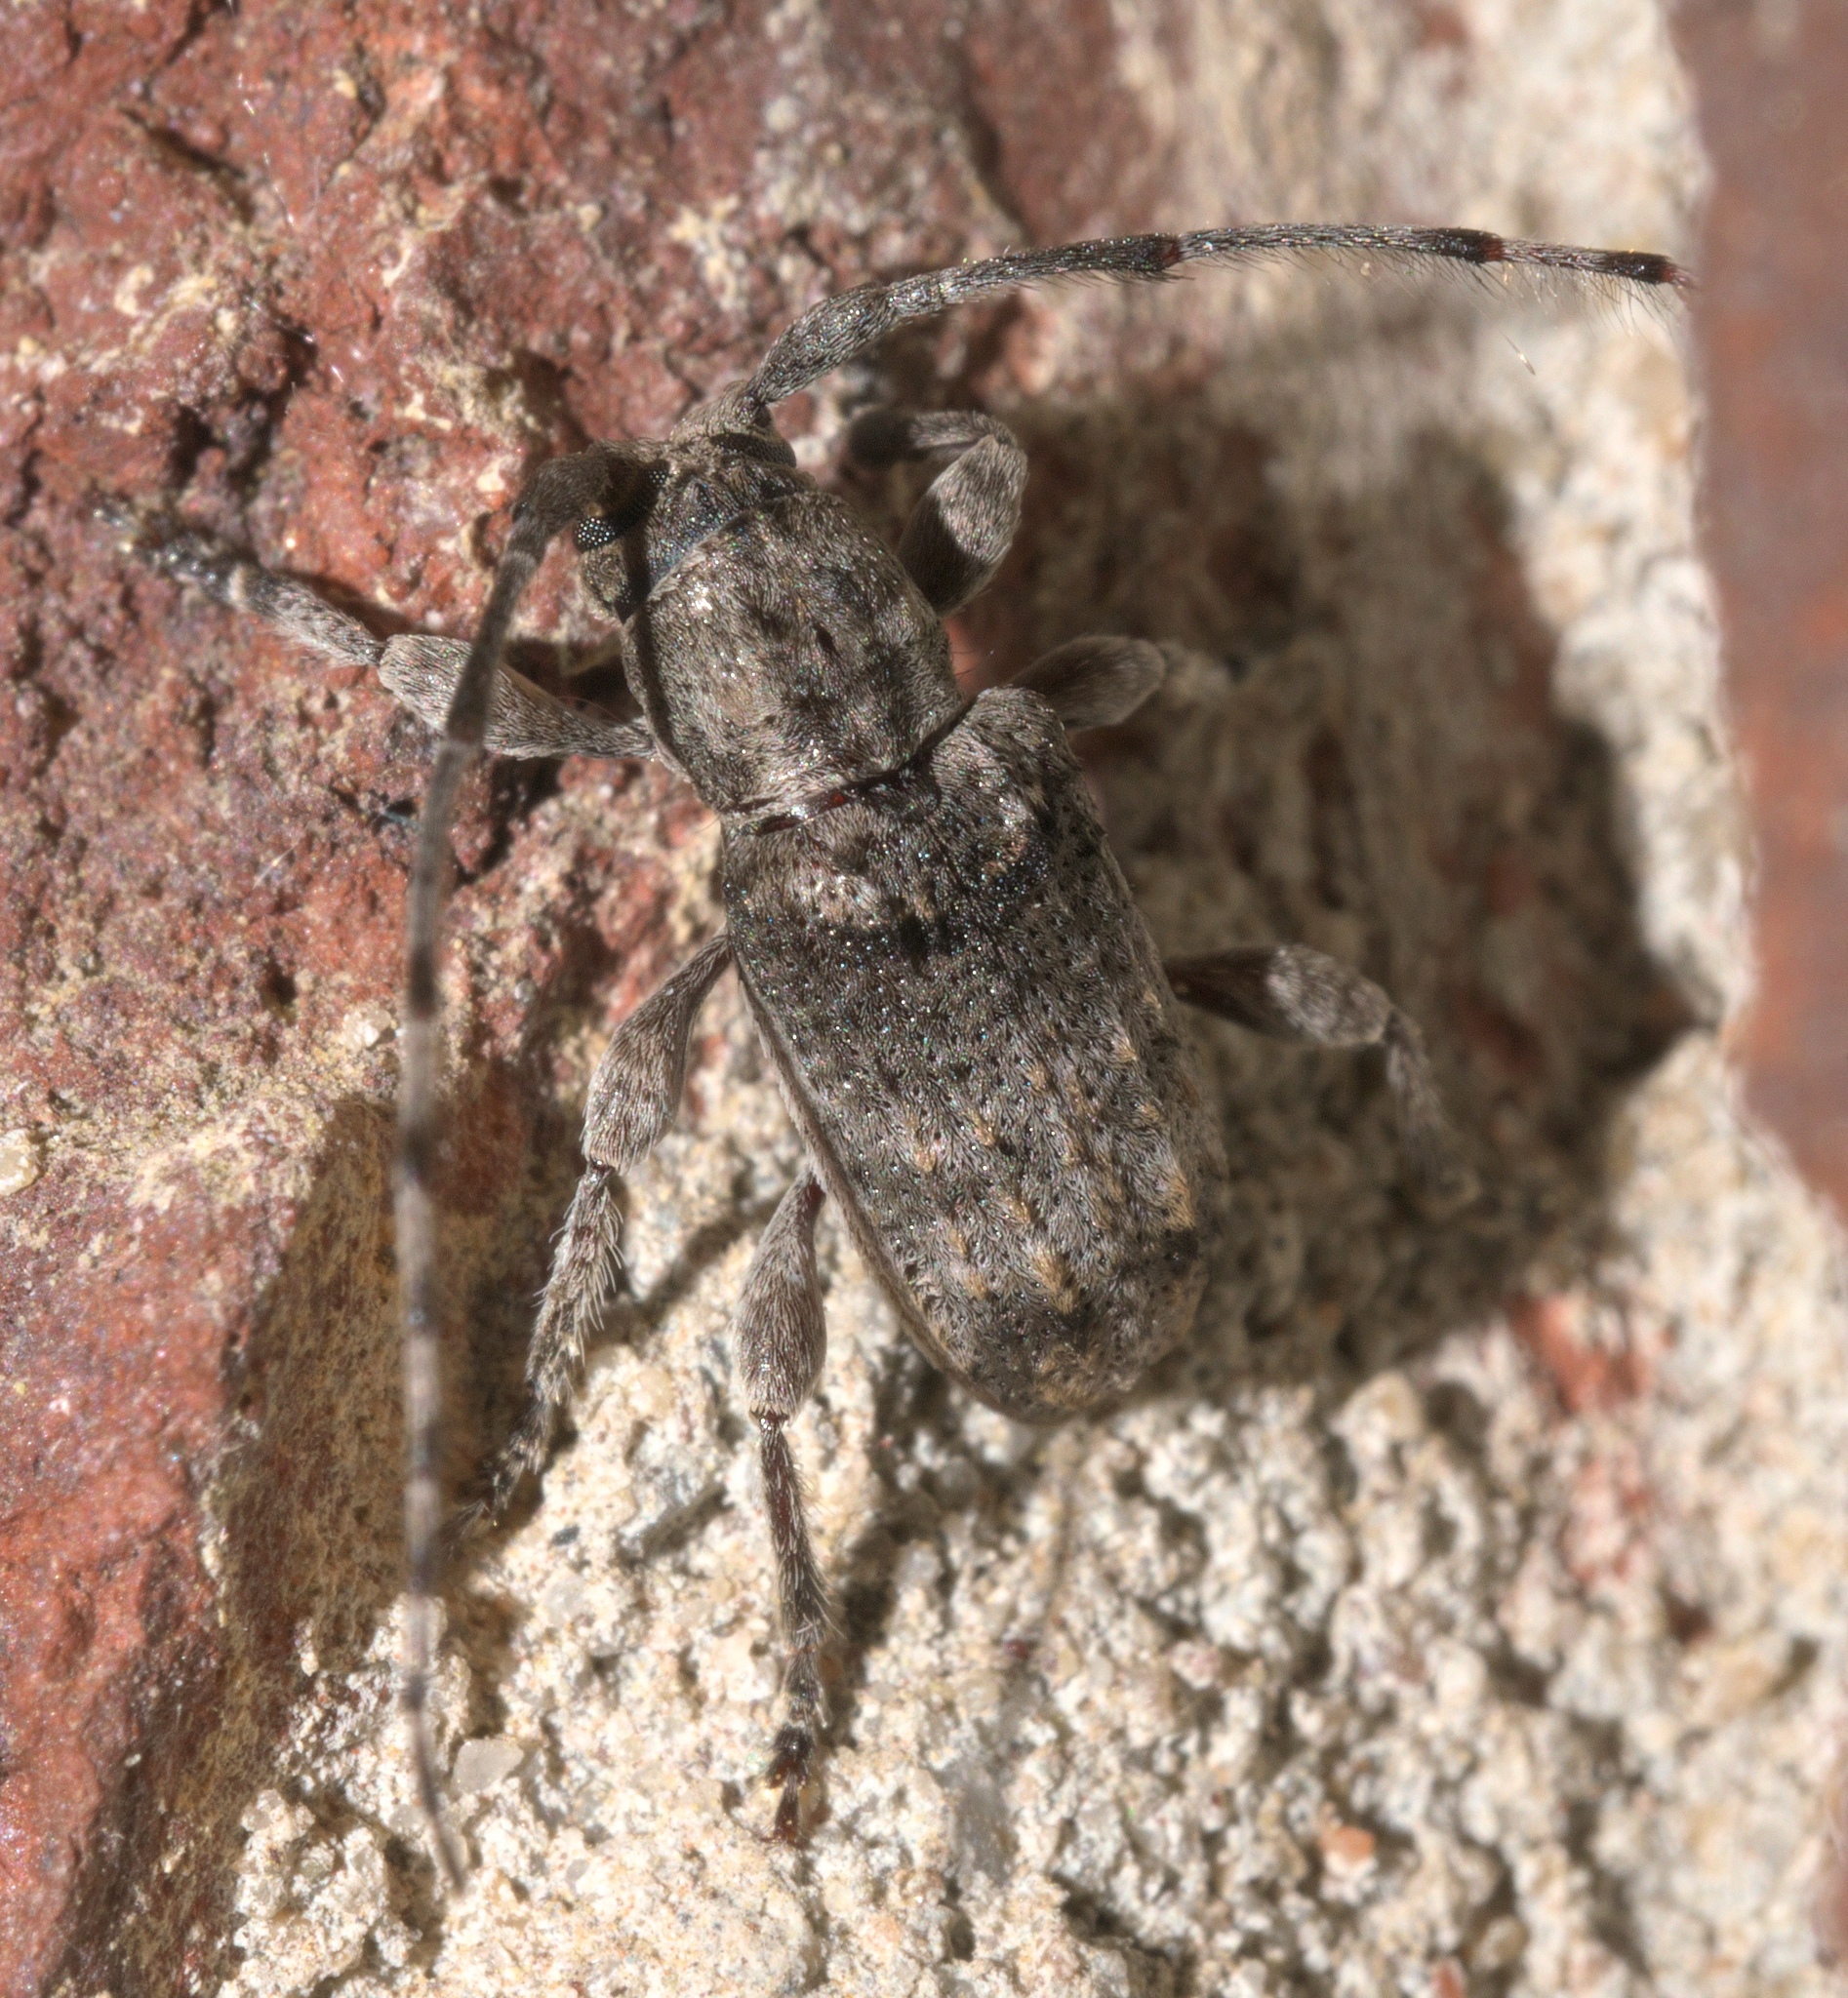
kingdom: Animalia
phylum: Arthropoda
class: Insecta
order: Coleoptera
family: Cerambycidae
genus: Ecyrus
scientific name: Ecyrus dasycerus
